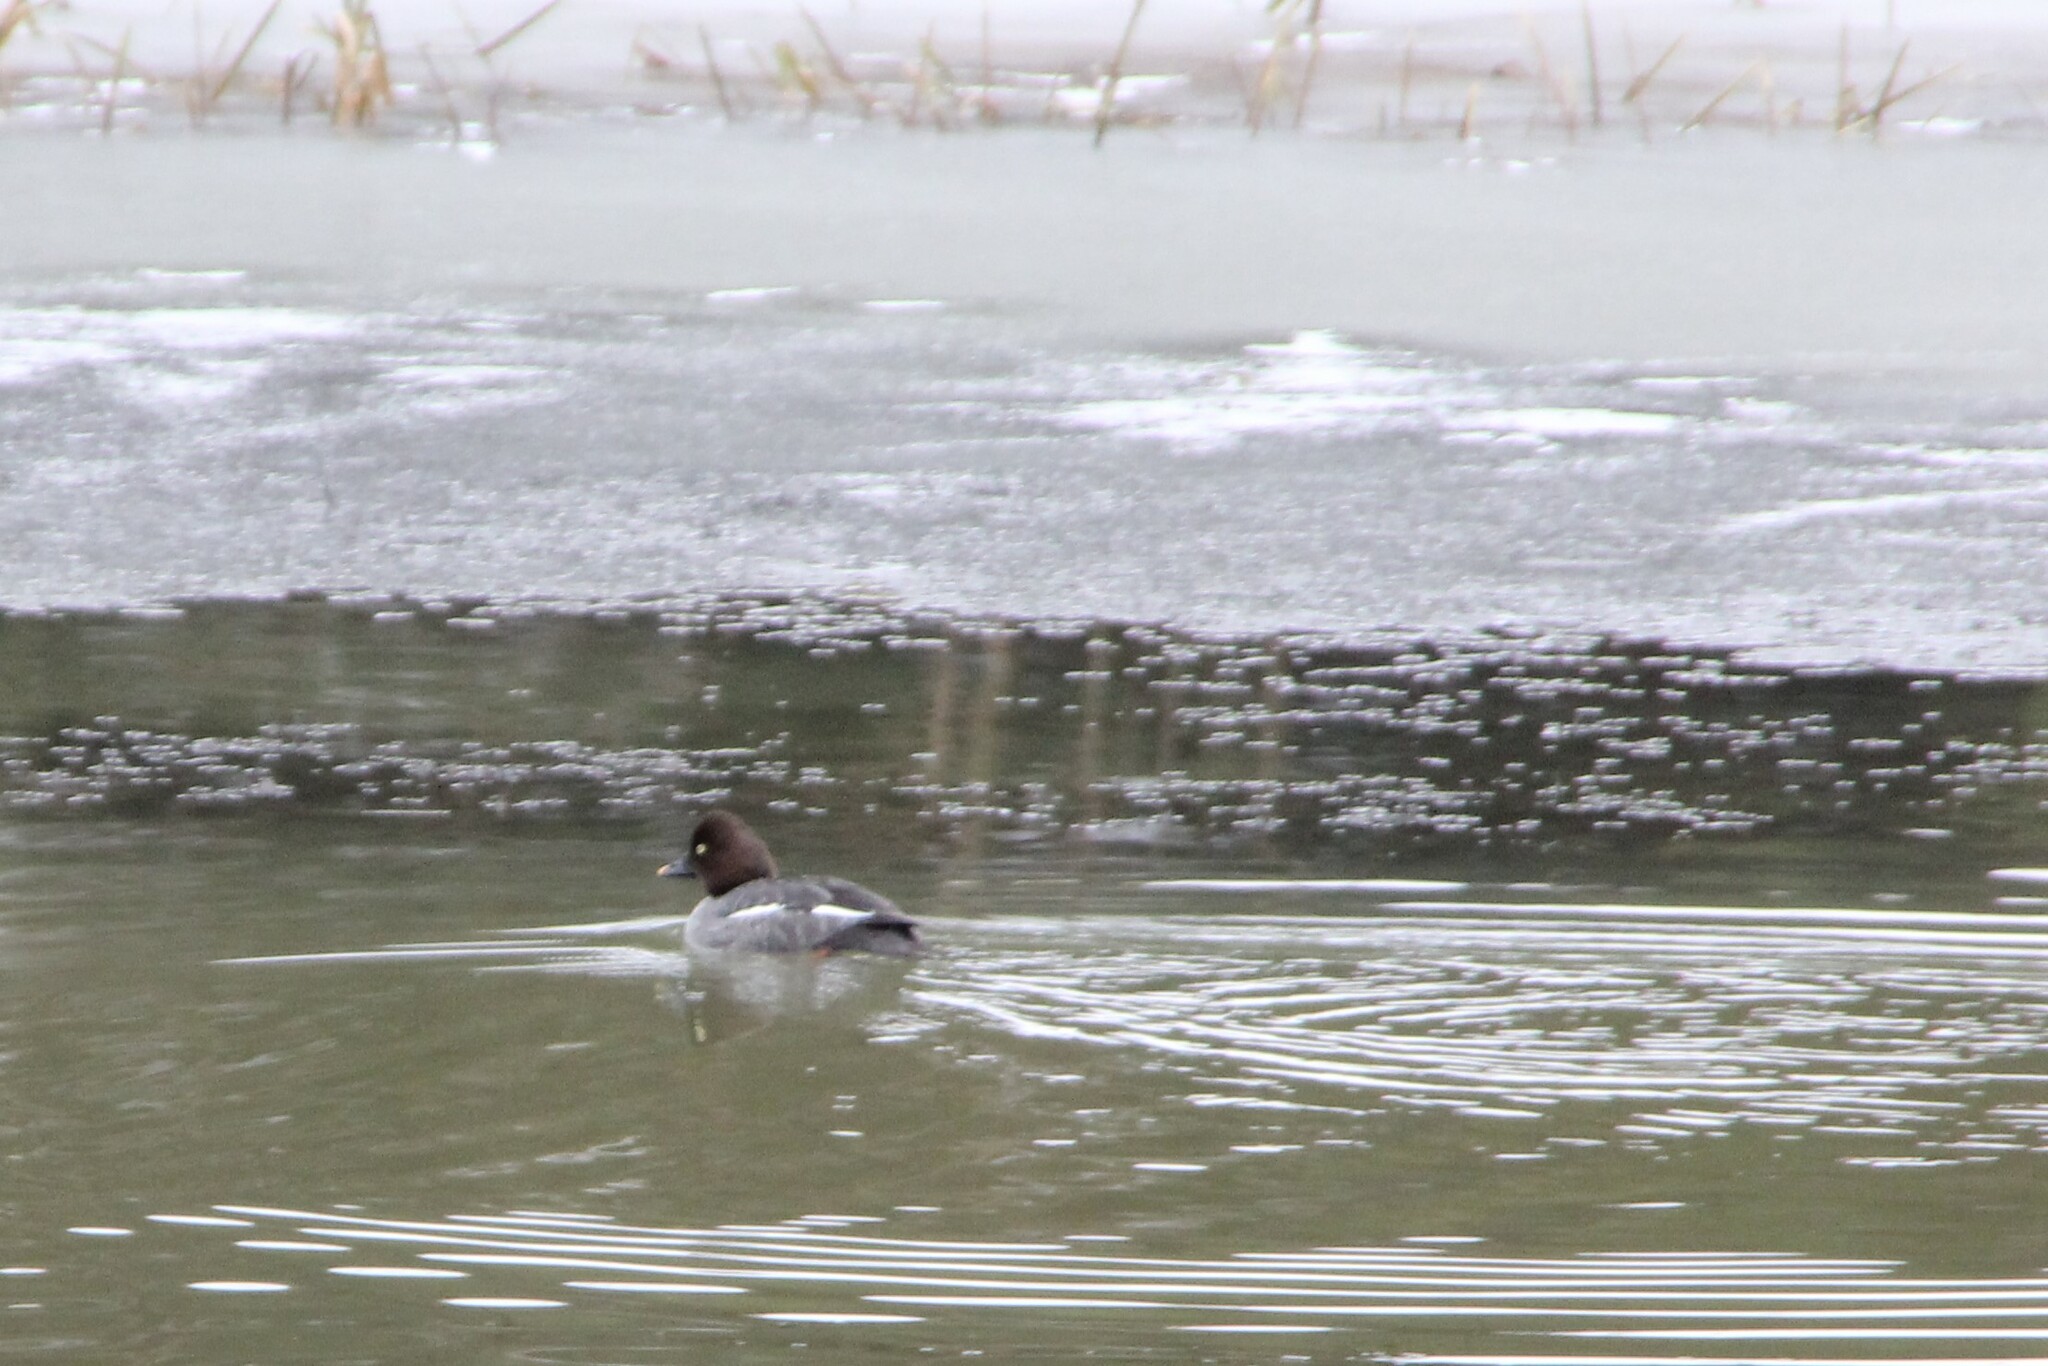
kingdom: Animalia
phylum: Chordata
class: Aves
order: Anseriformes
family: Anatidae
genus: Bucephala
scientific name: Bucephala clangula
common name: Common goldeneye
